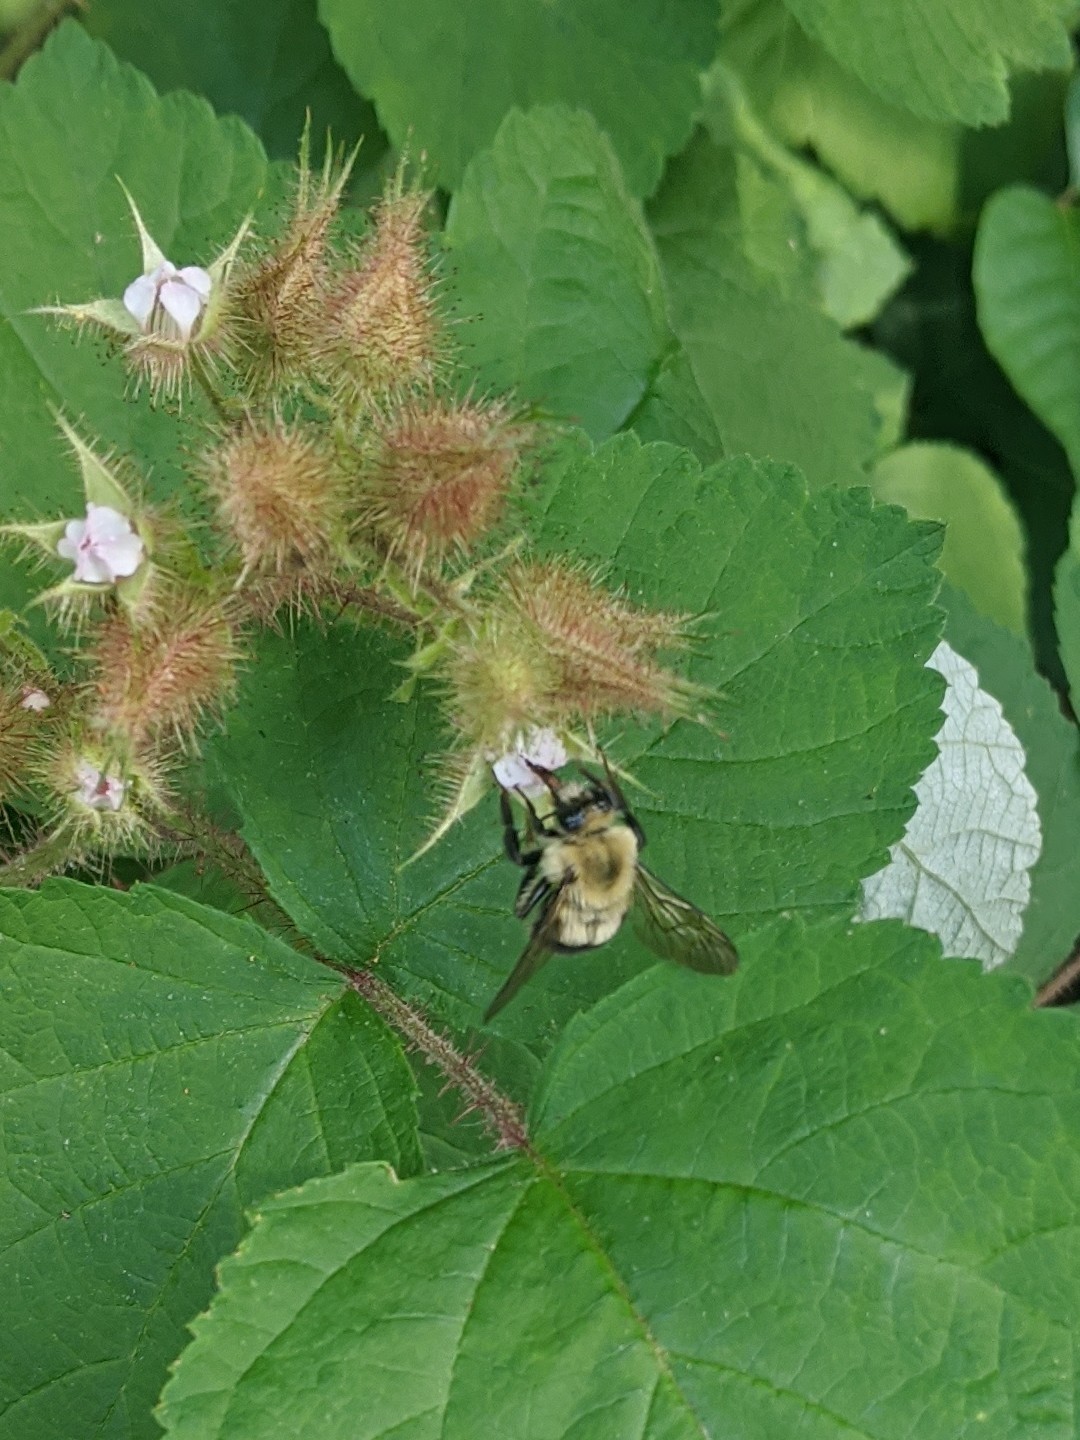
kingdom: Animalia
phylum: Arthropoda
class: Insecta
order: Hymenoptera
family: Apidae
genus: Bombus
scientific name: Bombus bimaculatus
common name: Two-spotted bumble bee
